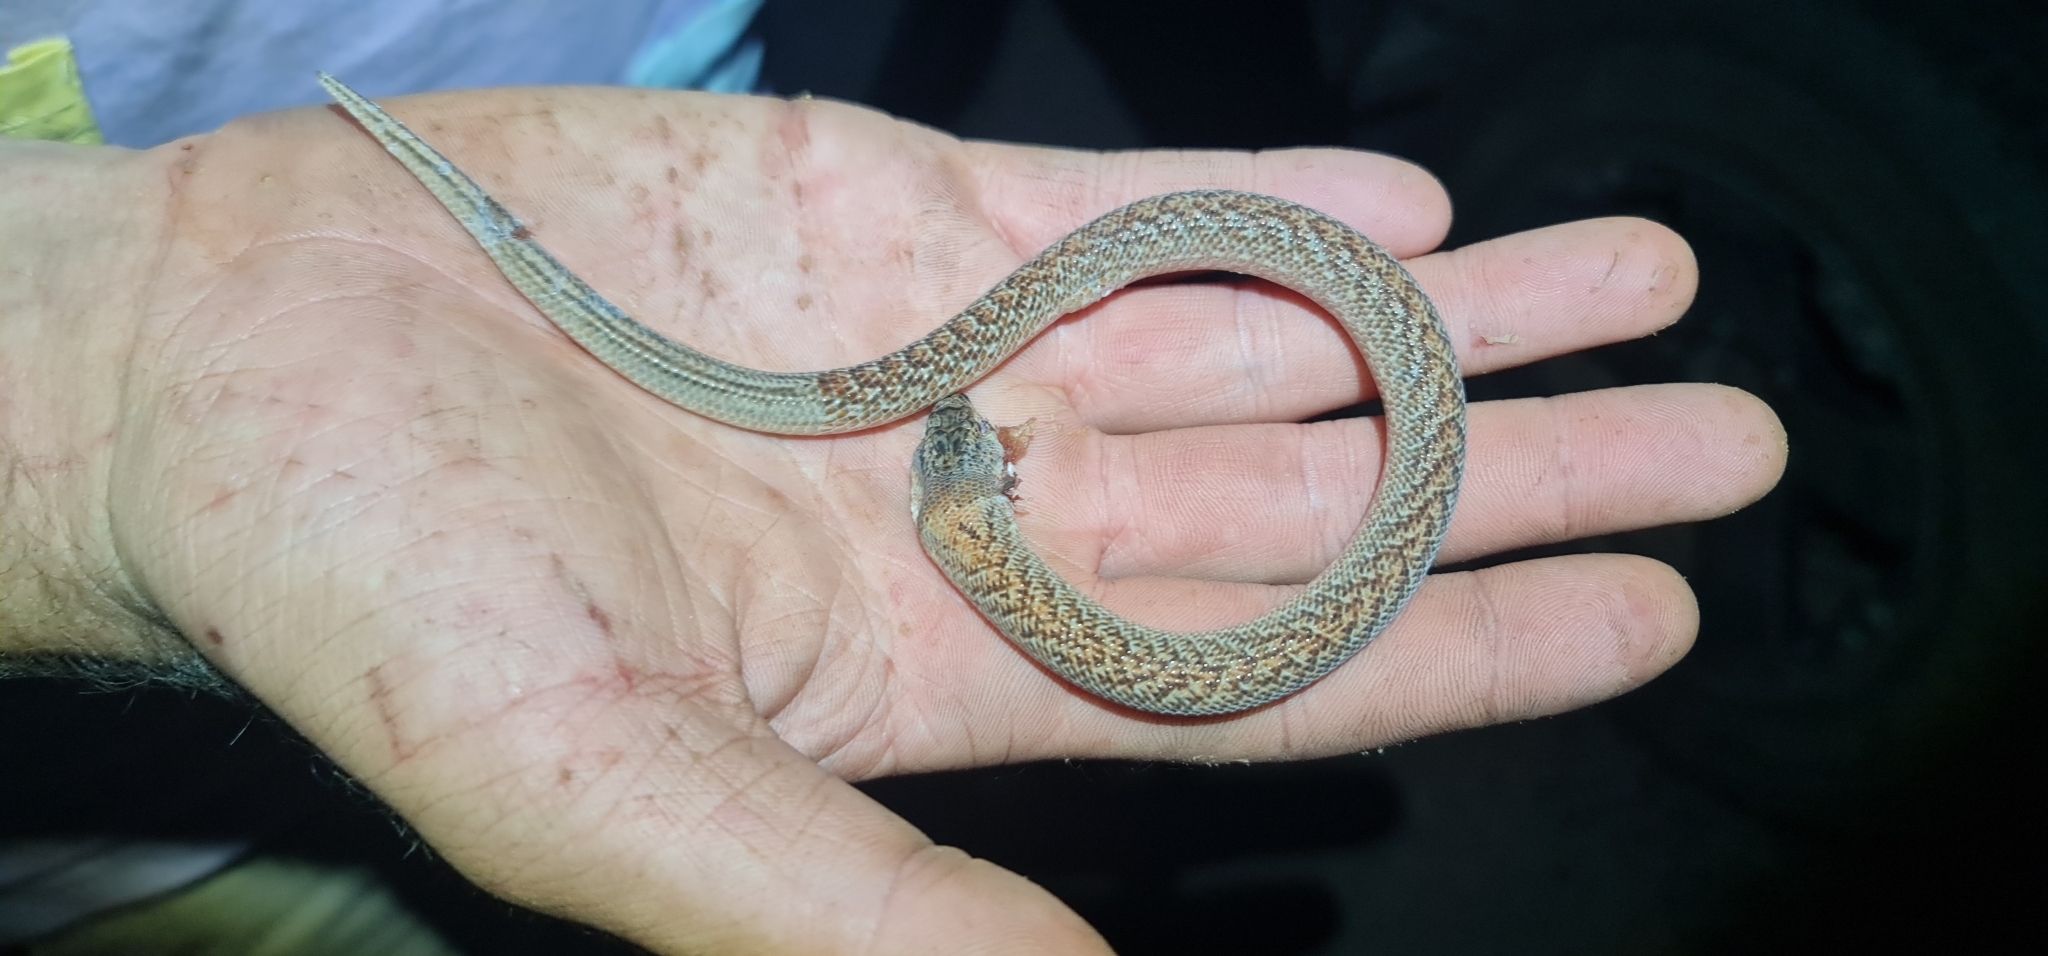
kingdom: Animalia
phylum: Chordata
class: Squamata
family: Pygopodidae
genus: Pygopus
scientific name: Pygopus schraderi
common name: Eastern scaly-foot
